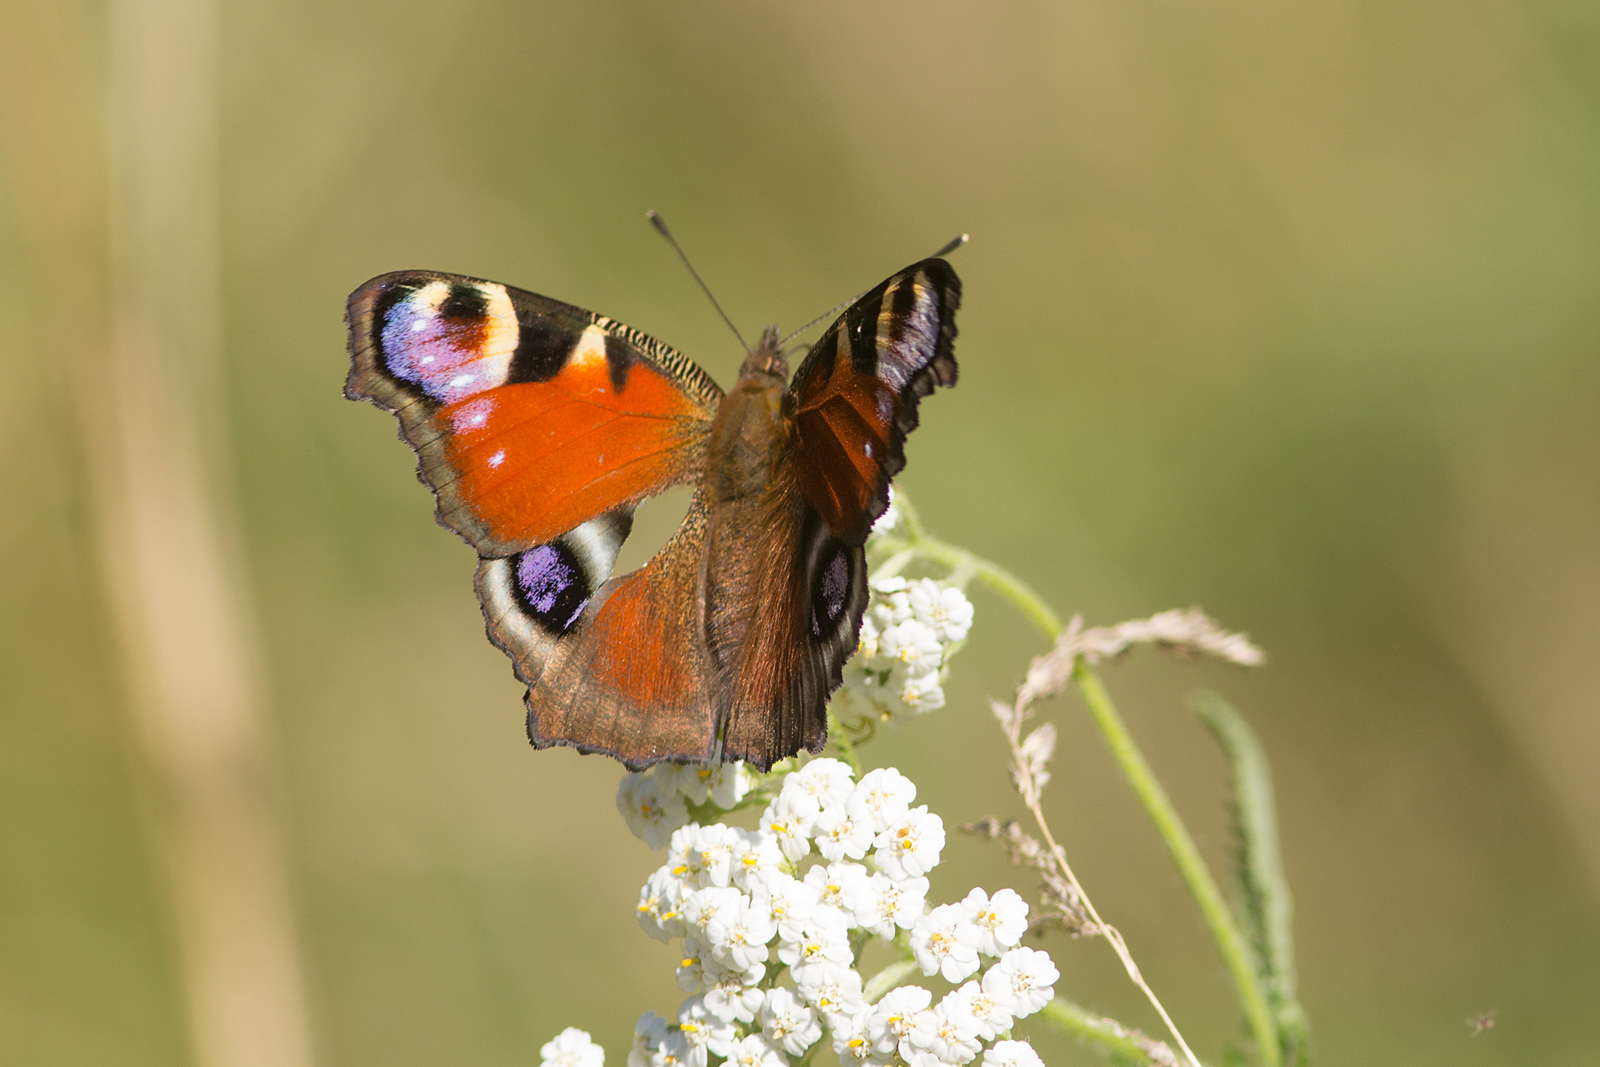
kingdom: Animalia
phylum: Arthropoda
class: Insecta
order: Lepidoptera
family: Nymphalidae
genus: Aglais
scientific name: Aglais io
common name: Peacock
